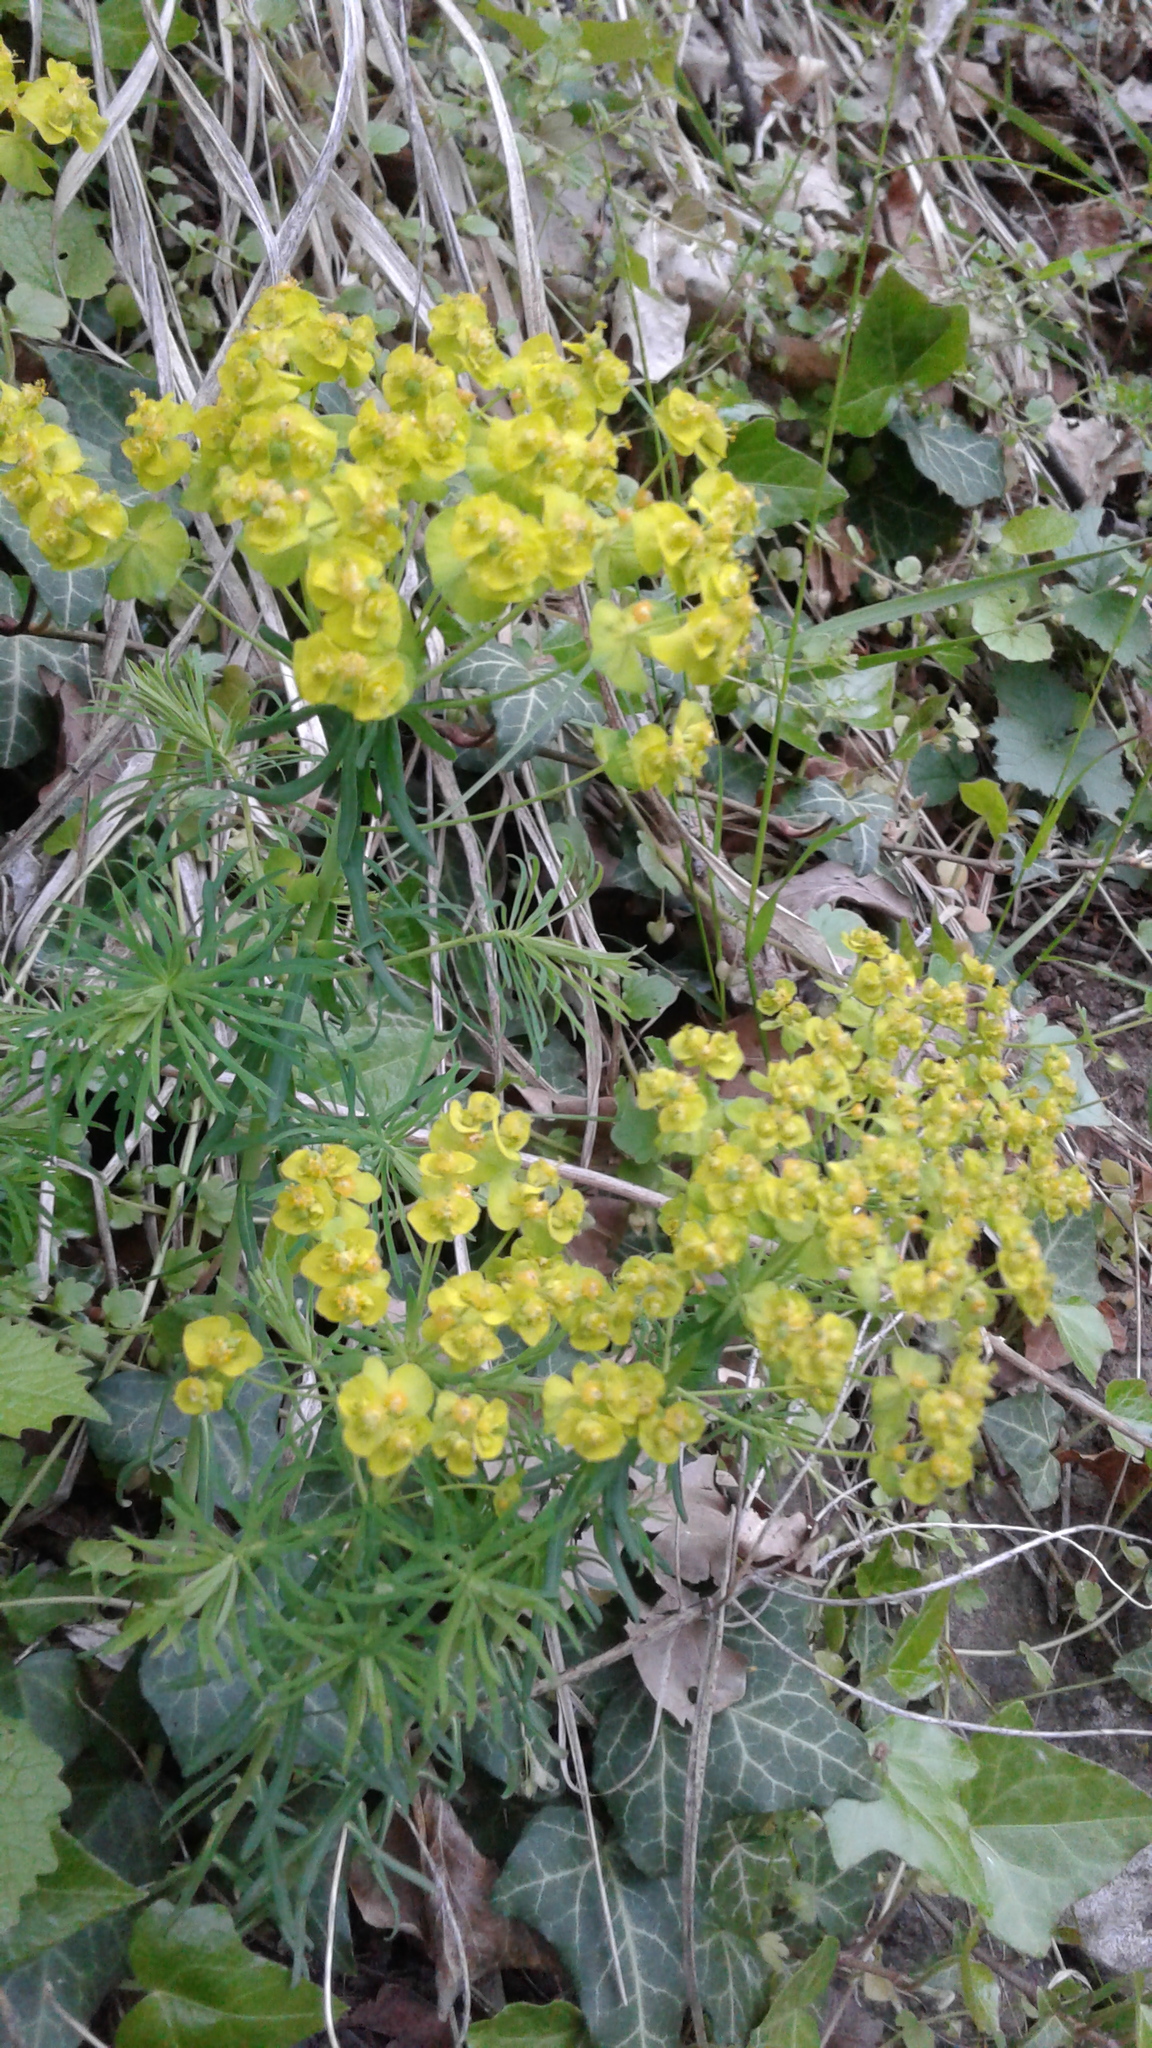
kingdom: Plantae
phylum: Tracheophyta
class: Magnoliopsida
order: Malpighiales
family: Euphorbiaceae
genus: Euphorbia
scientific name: Euphorbia cyparissias
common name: Cypress spurge
